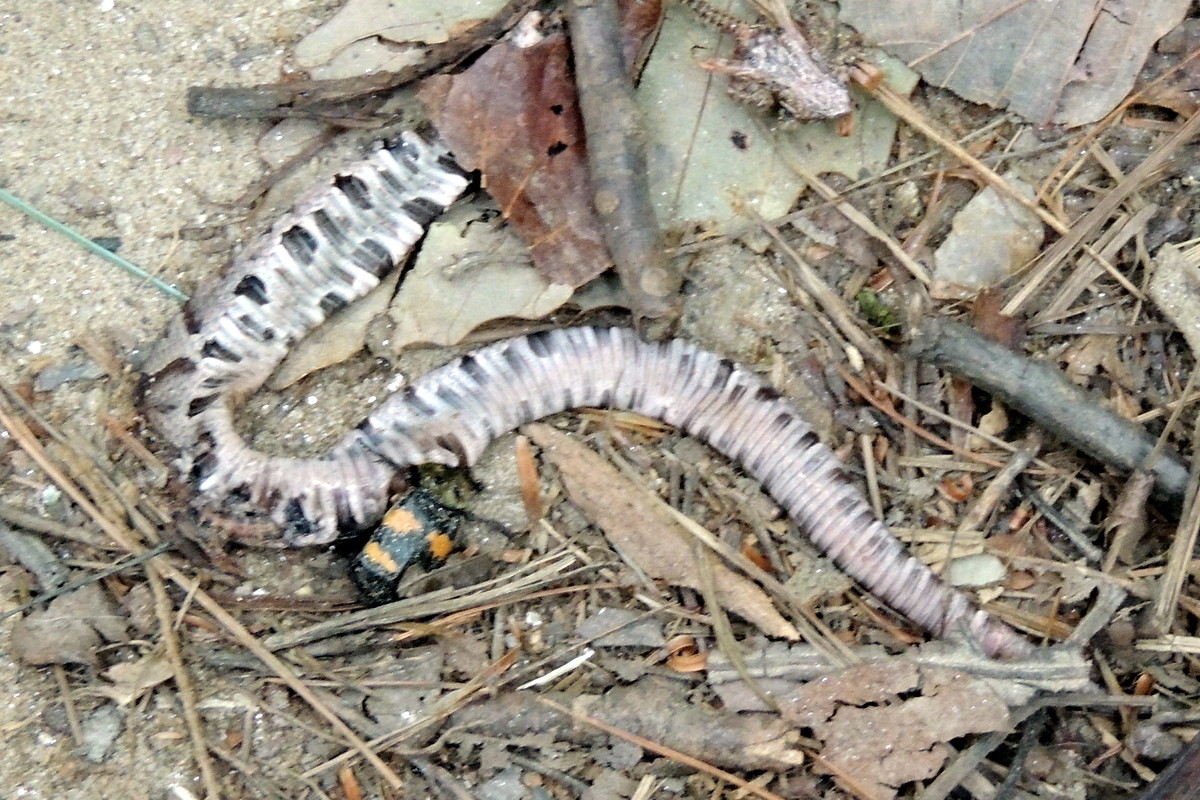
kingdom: Animalia
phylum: Arthropoda
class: Insecta
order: Coleoptera
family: Staphylinidae
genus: Nicrophorus
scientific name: Nicrophorus tomentosus
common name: Tomentose burying beetle
